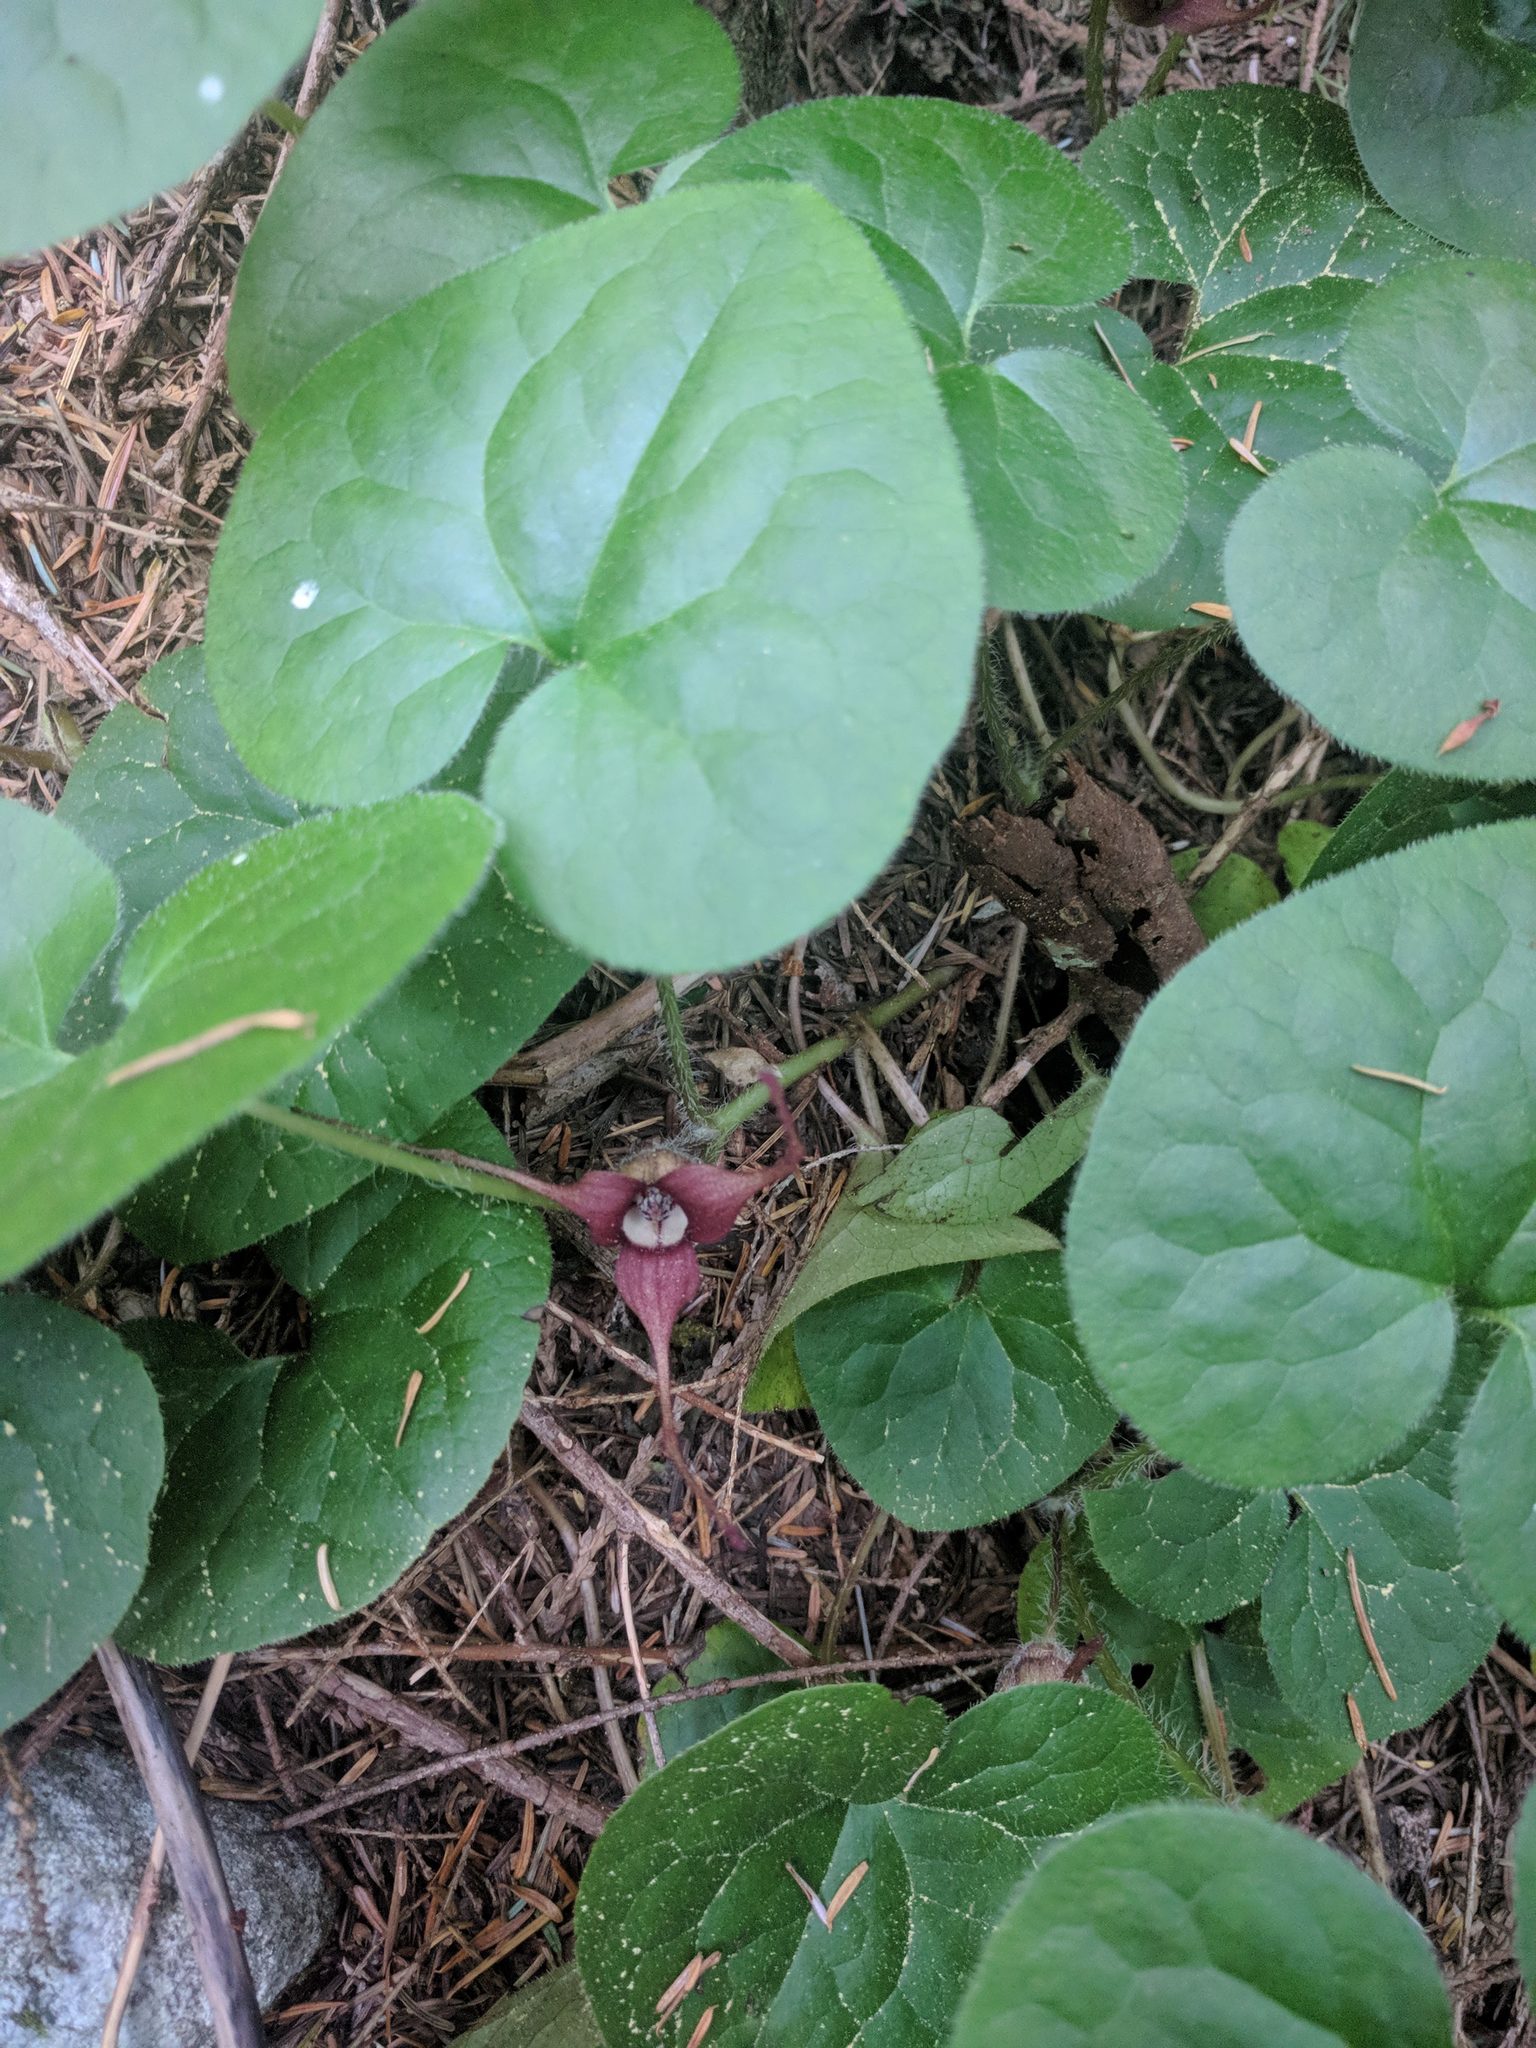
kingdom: Plantae
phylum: Tracheophyta
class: Magnoliopsida
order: Piperales
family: Aristolochiaceae
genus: Asarum
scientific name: Asarum caudatum
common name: Wild ginger
